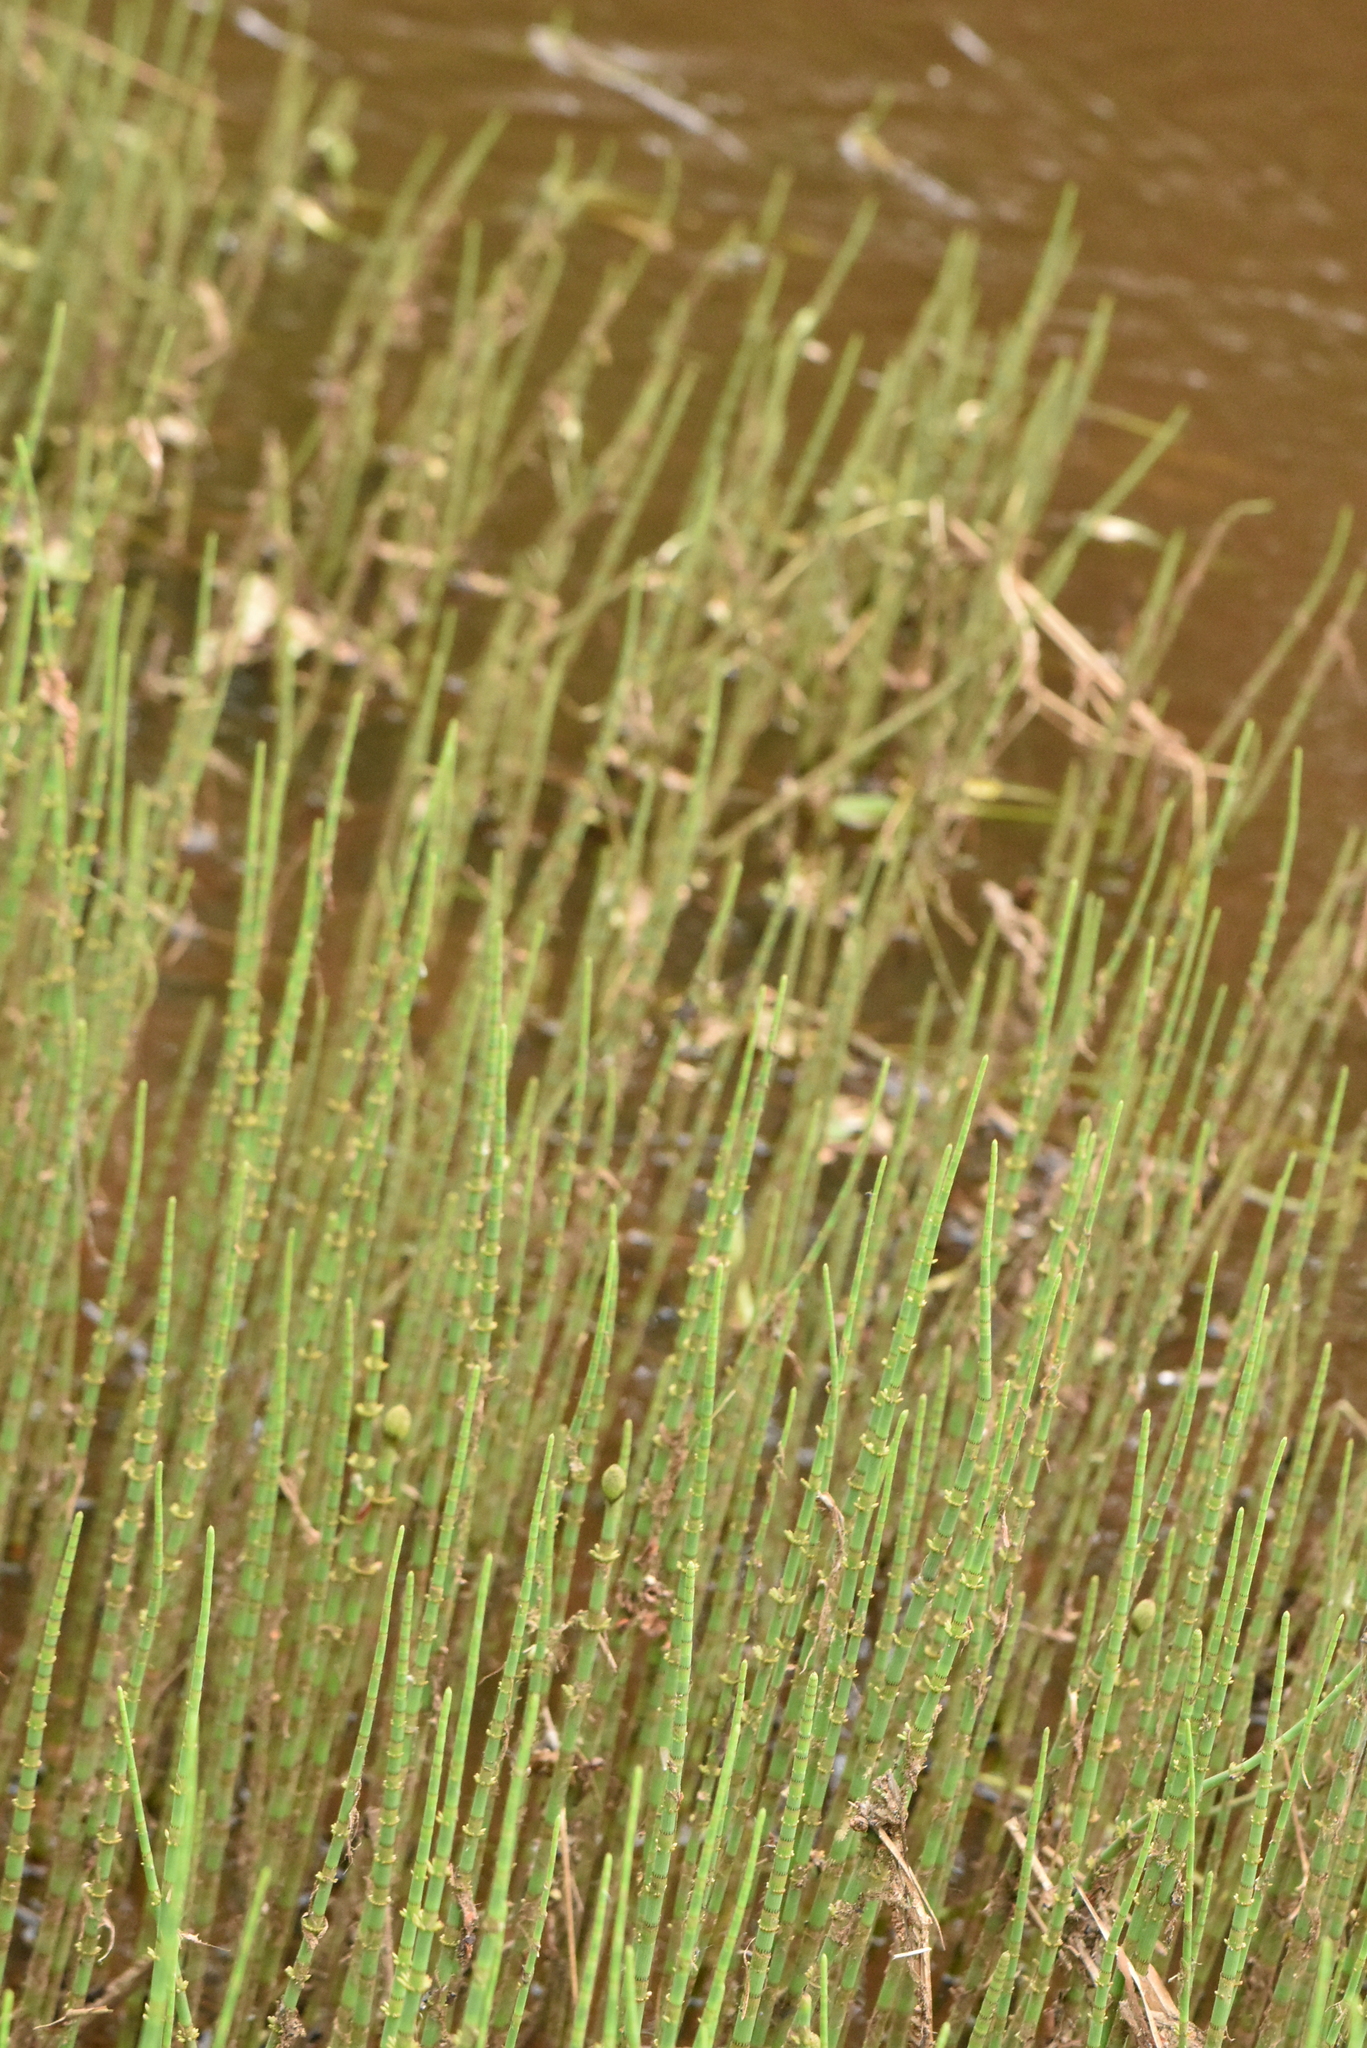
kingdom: Plantae
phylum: Tracheophyta
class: Polypodiopsida
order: Equisetales
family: Equisetaceae
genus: Equisetum
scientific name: Equisetum fluviatile
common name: Water horsetail
